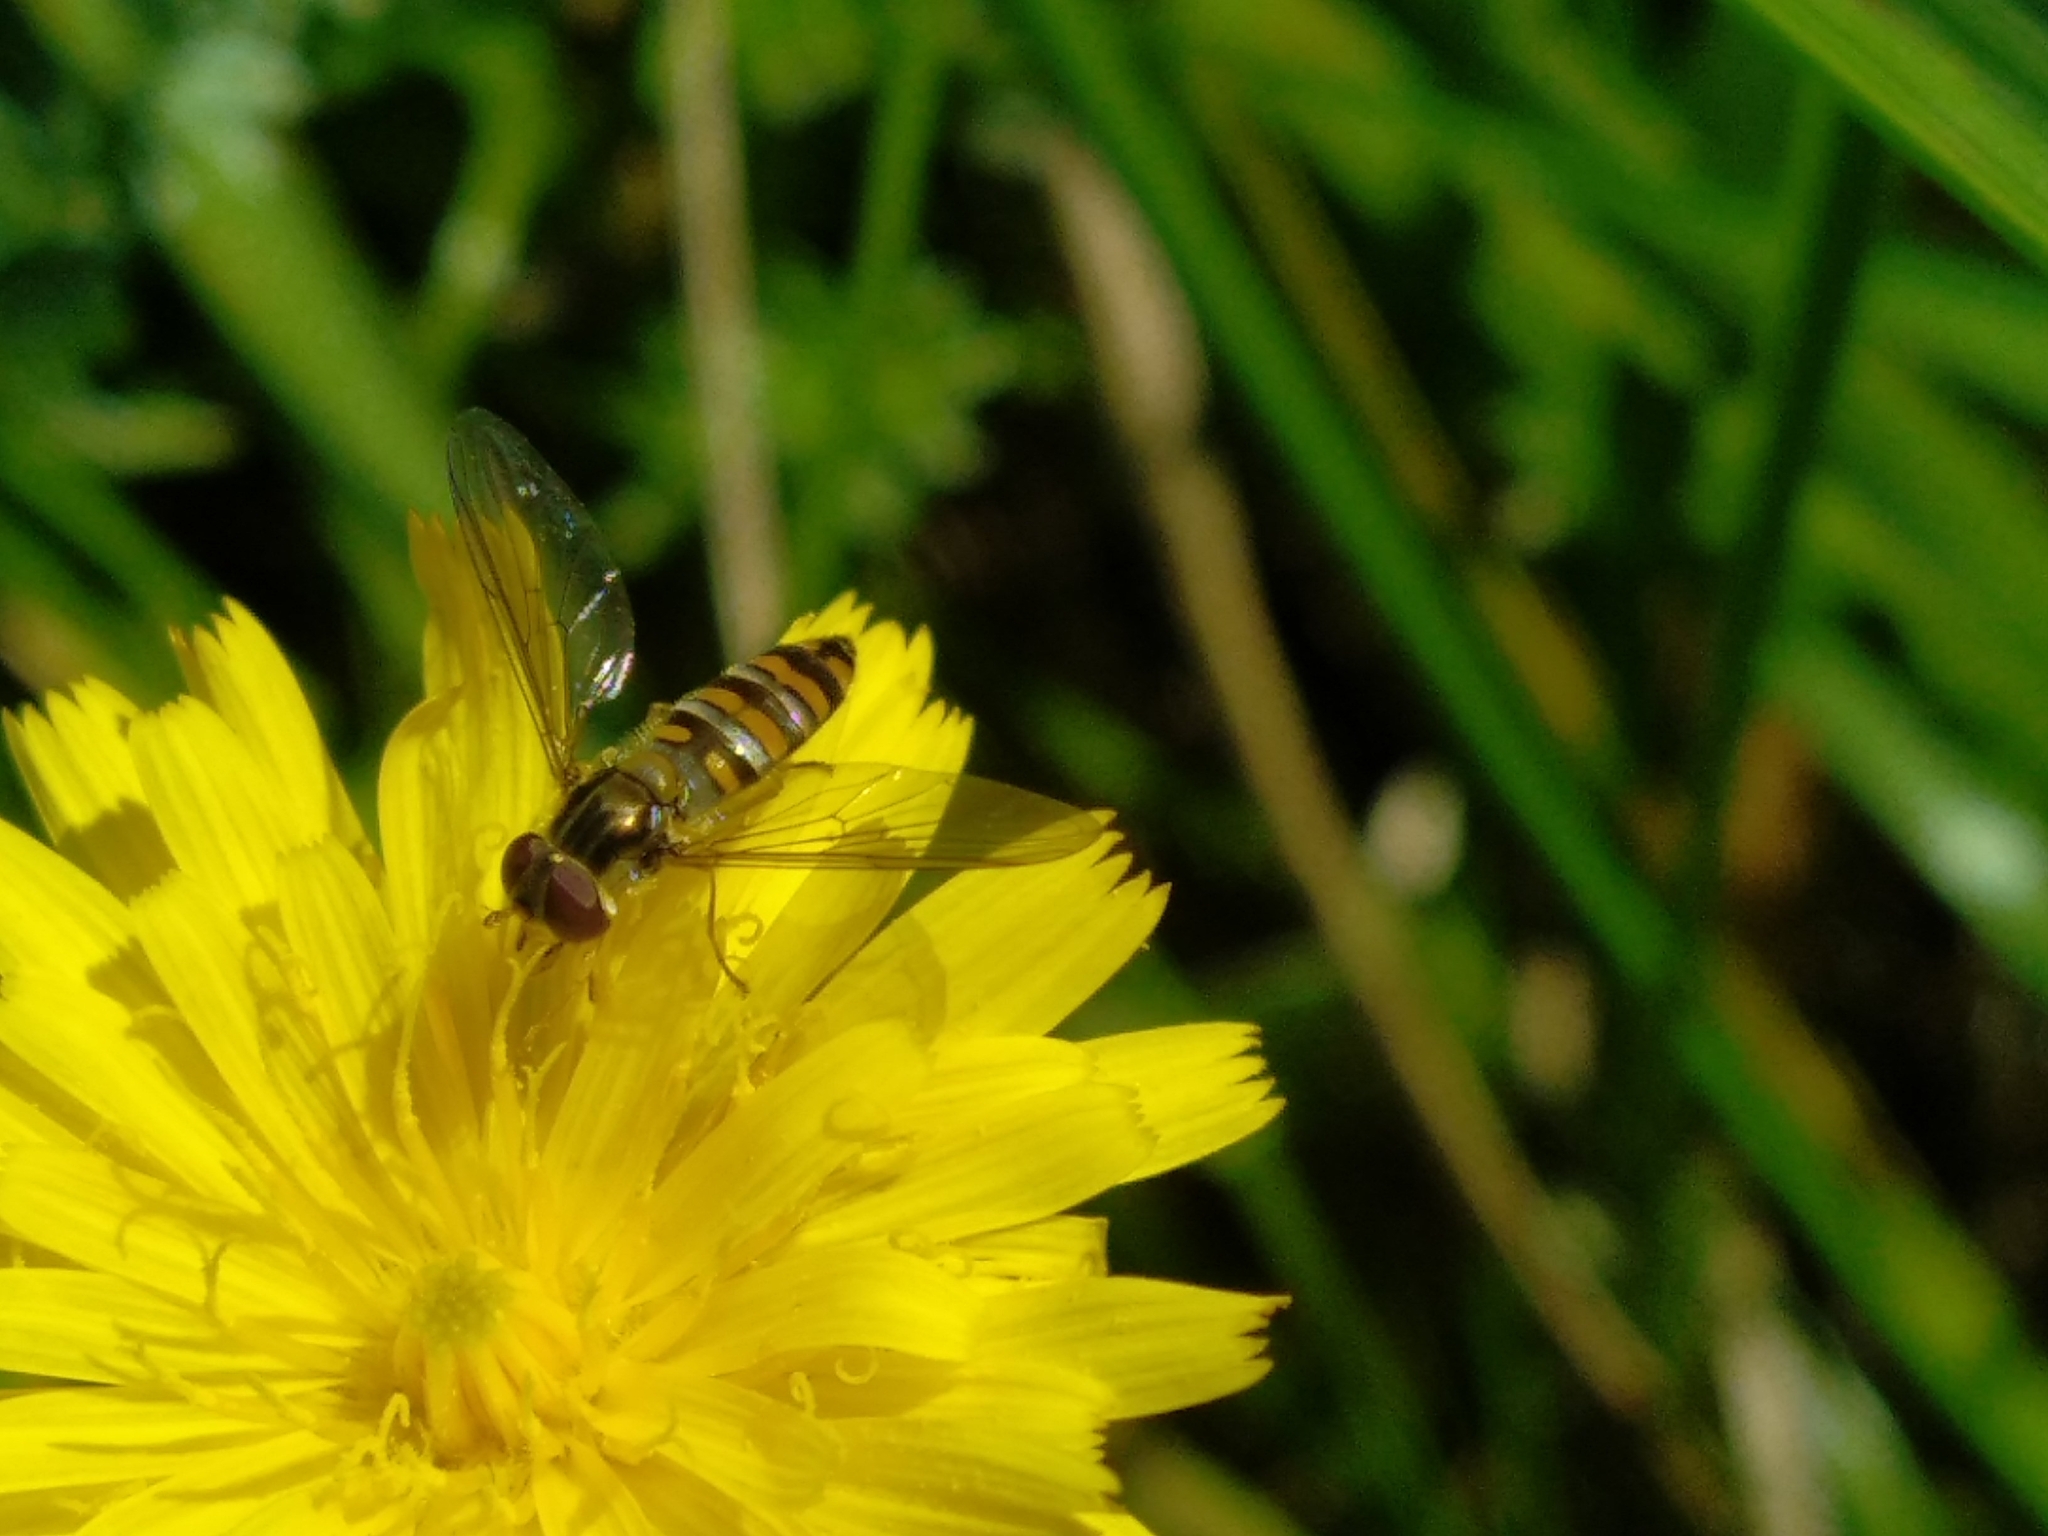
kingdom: Animalia
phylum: Arthropoda
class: Insecta
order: Diptera
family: Syrphidae
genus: Episyrphus
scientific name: Episyrphus balteatus
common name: Marmalade hoverfly
